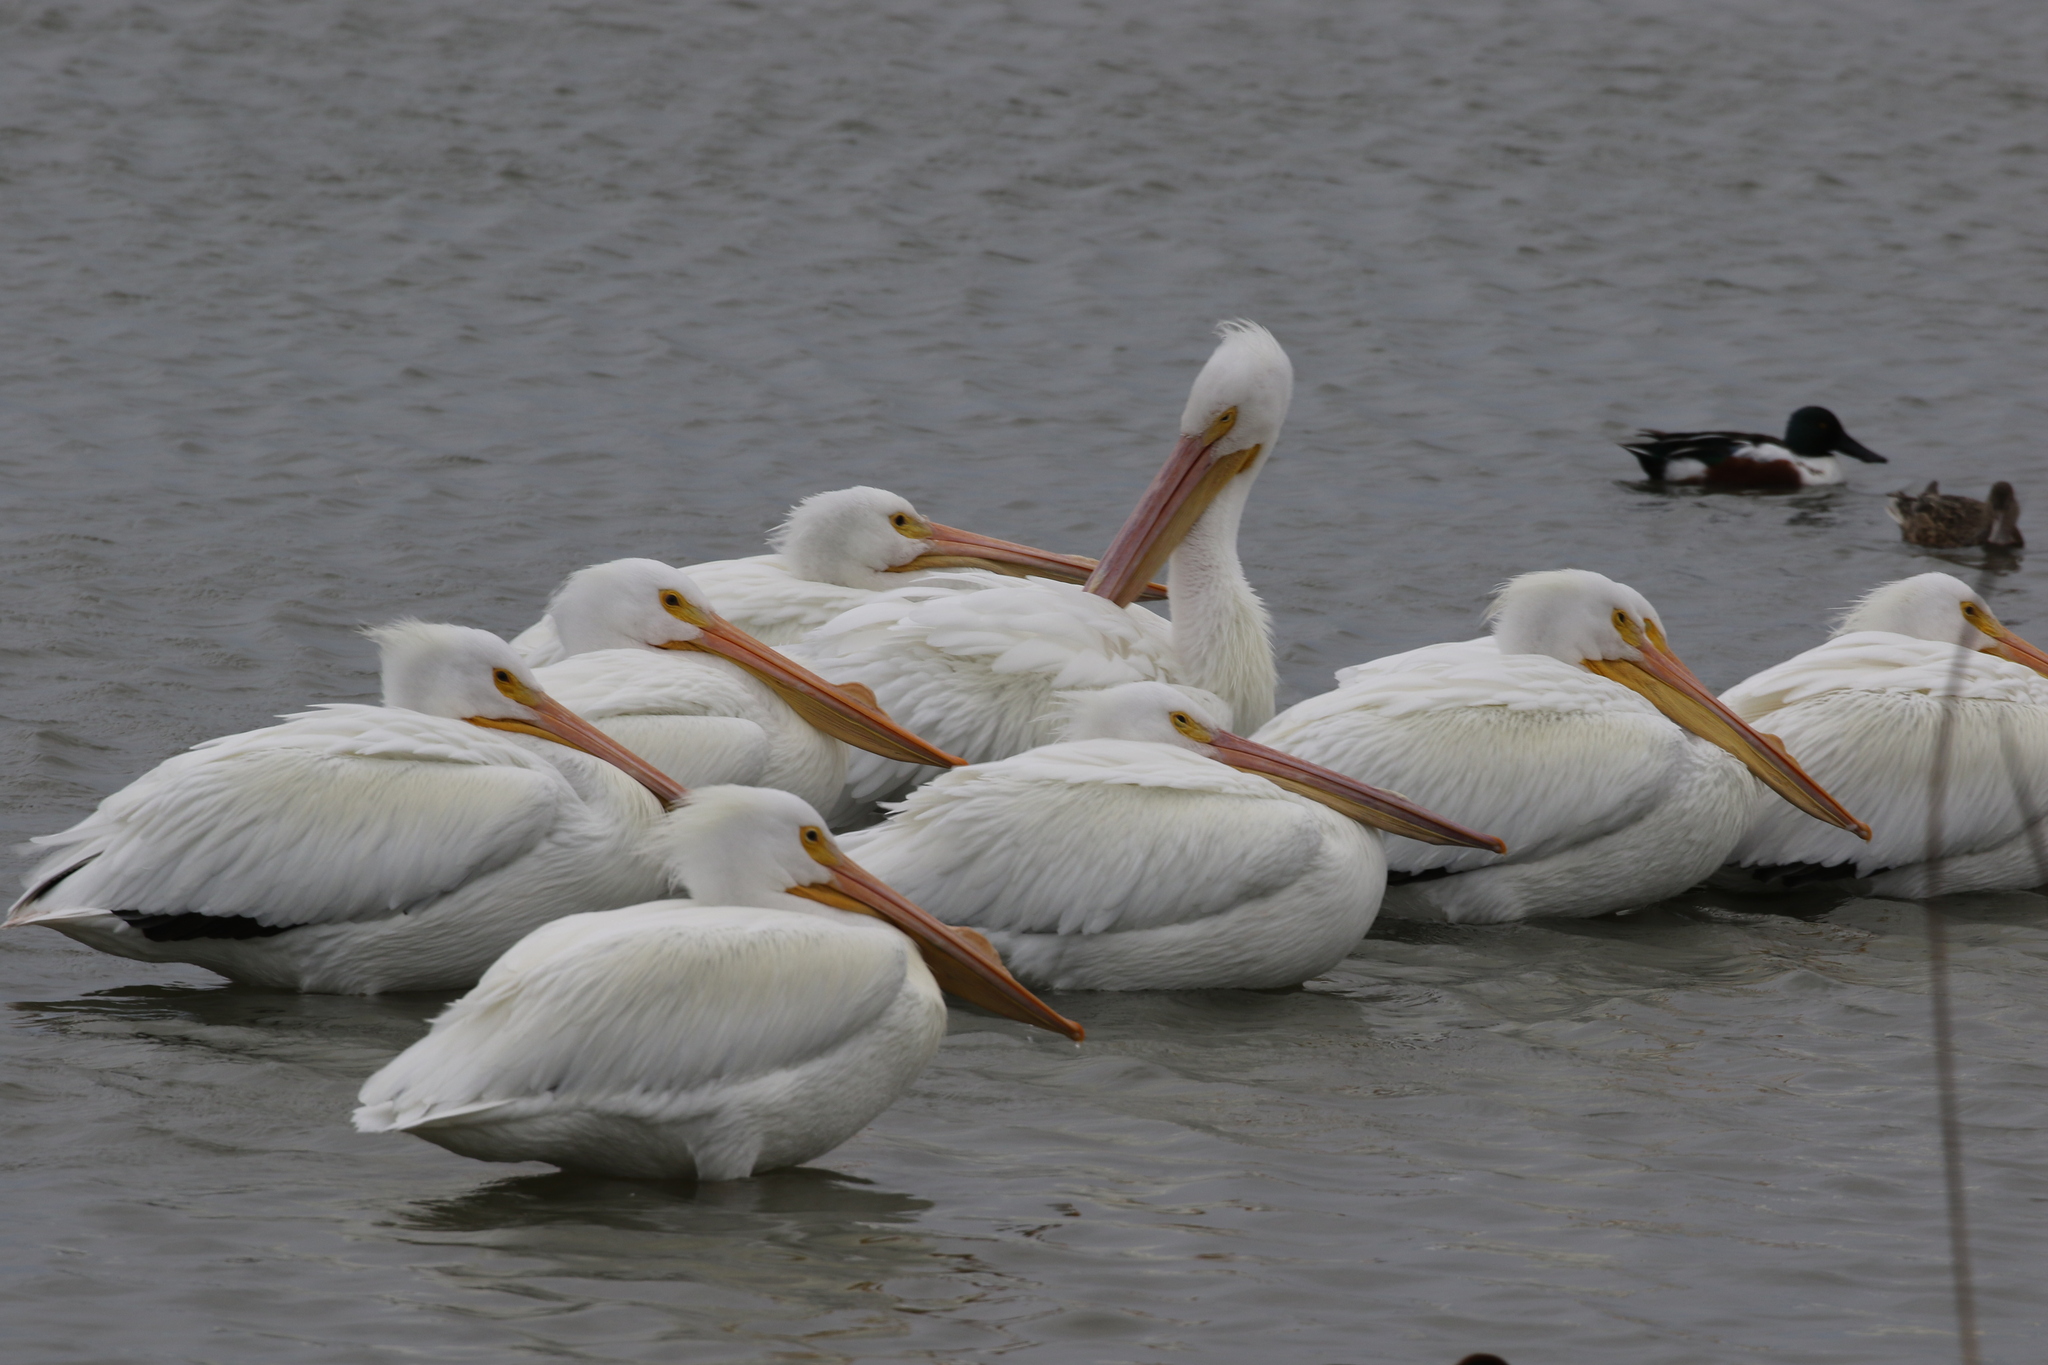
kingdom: Animalia
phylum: Chordata
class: Aves
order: Pelecaniformes
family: Pelecanidae
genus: Pelecanus
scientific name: Pelecanus erythrorhynchos
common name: American white pelican
